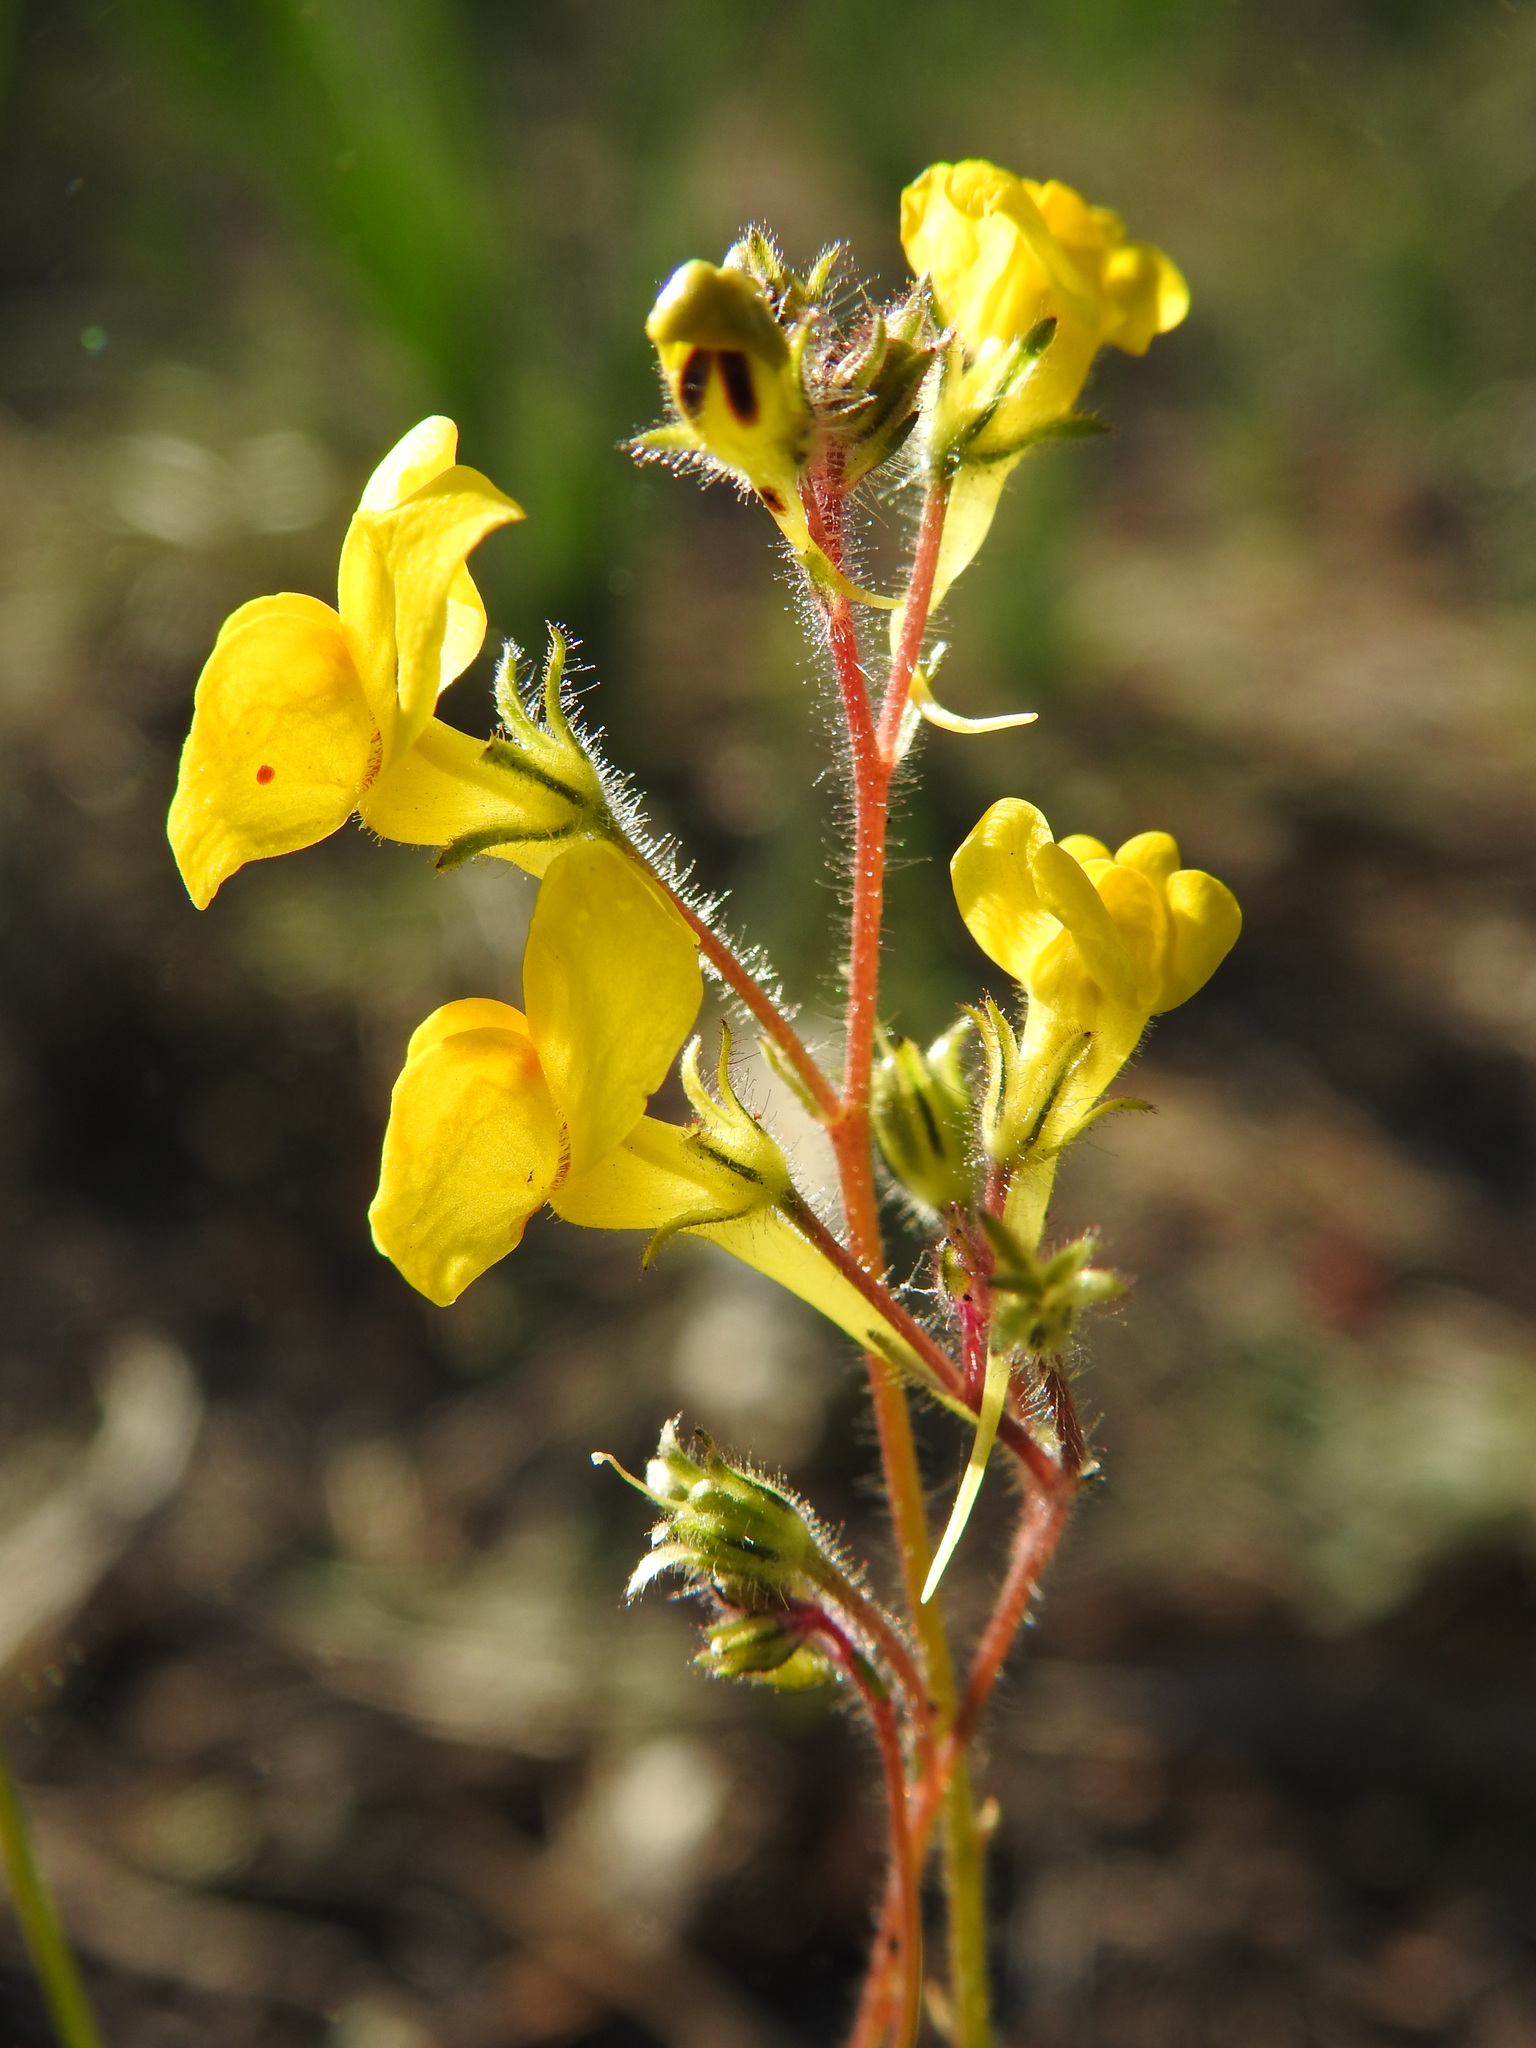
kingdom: Plantae
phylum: Tracheophyta
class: Magnoliopsida
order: Lamiales
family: Plantaginaceae
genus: Linaria
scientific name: Linaria viscosa
